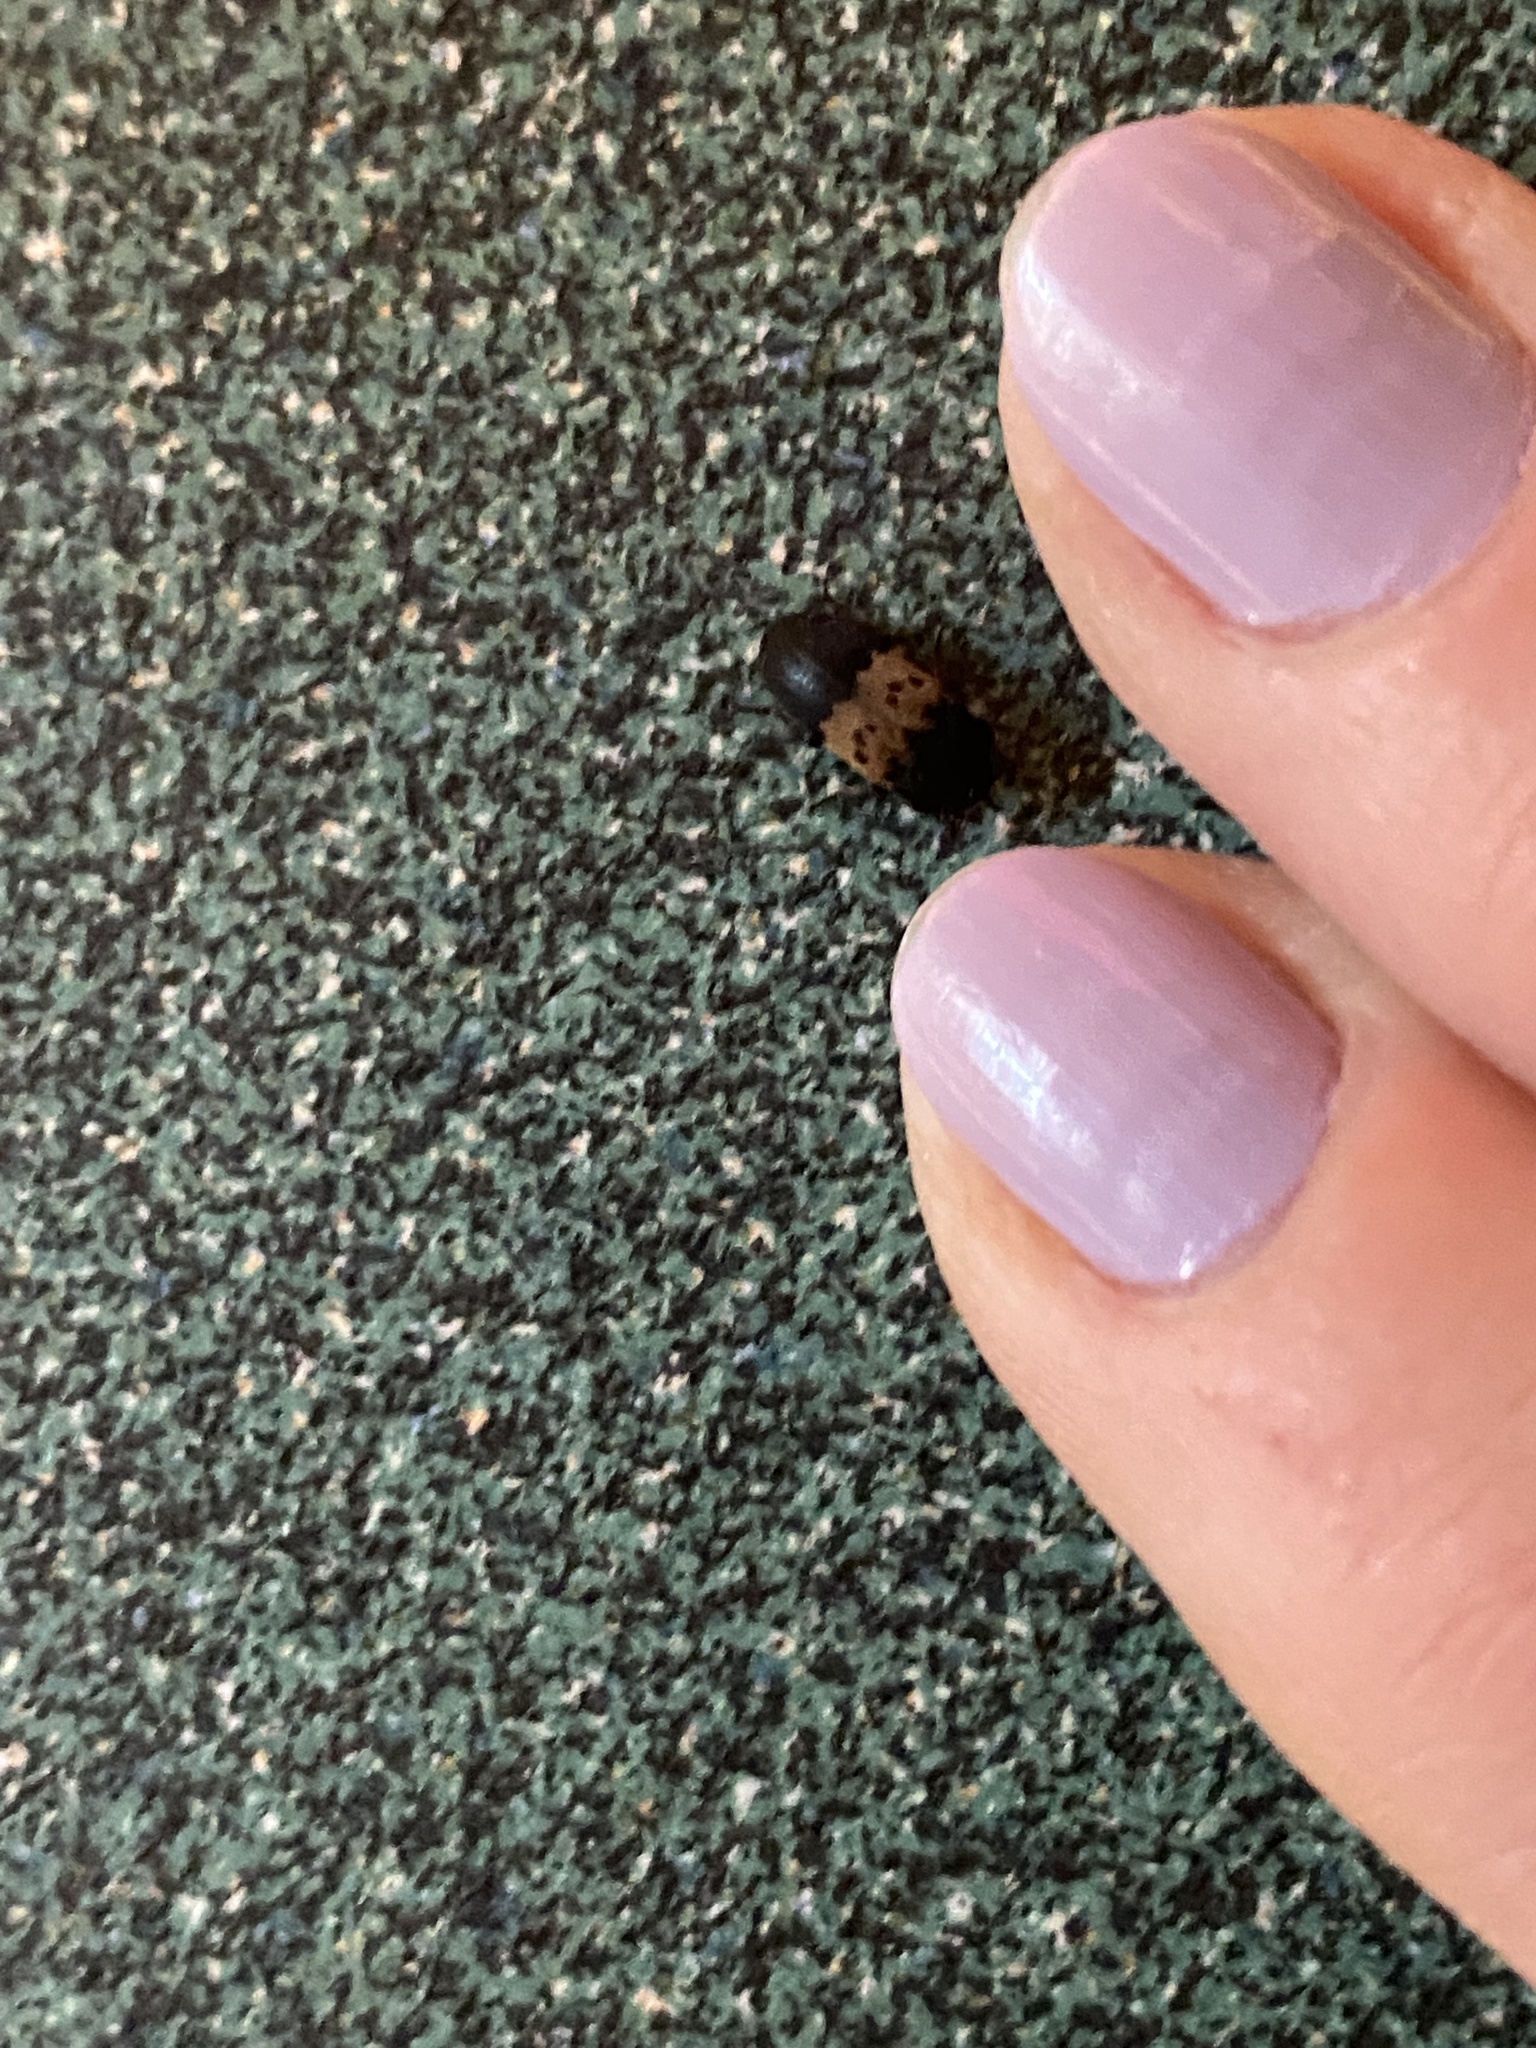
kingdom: Animalia
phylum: Arthropoda
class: Insecta
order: Coleoptera
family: Dermestidae
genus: Dermestes
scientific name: Dermestes lardarius
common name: Larder beetle
